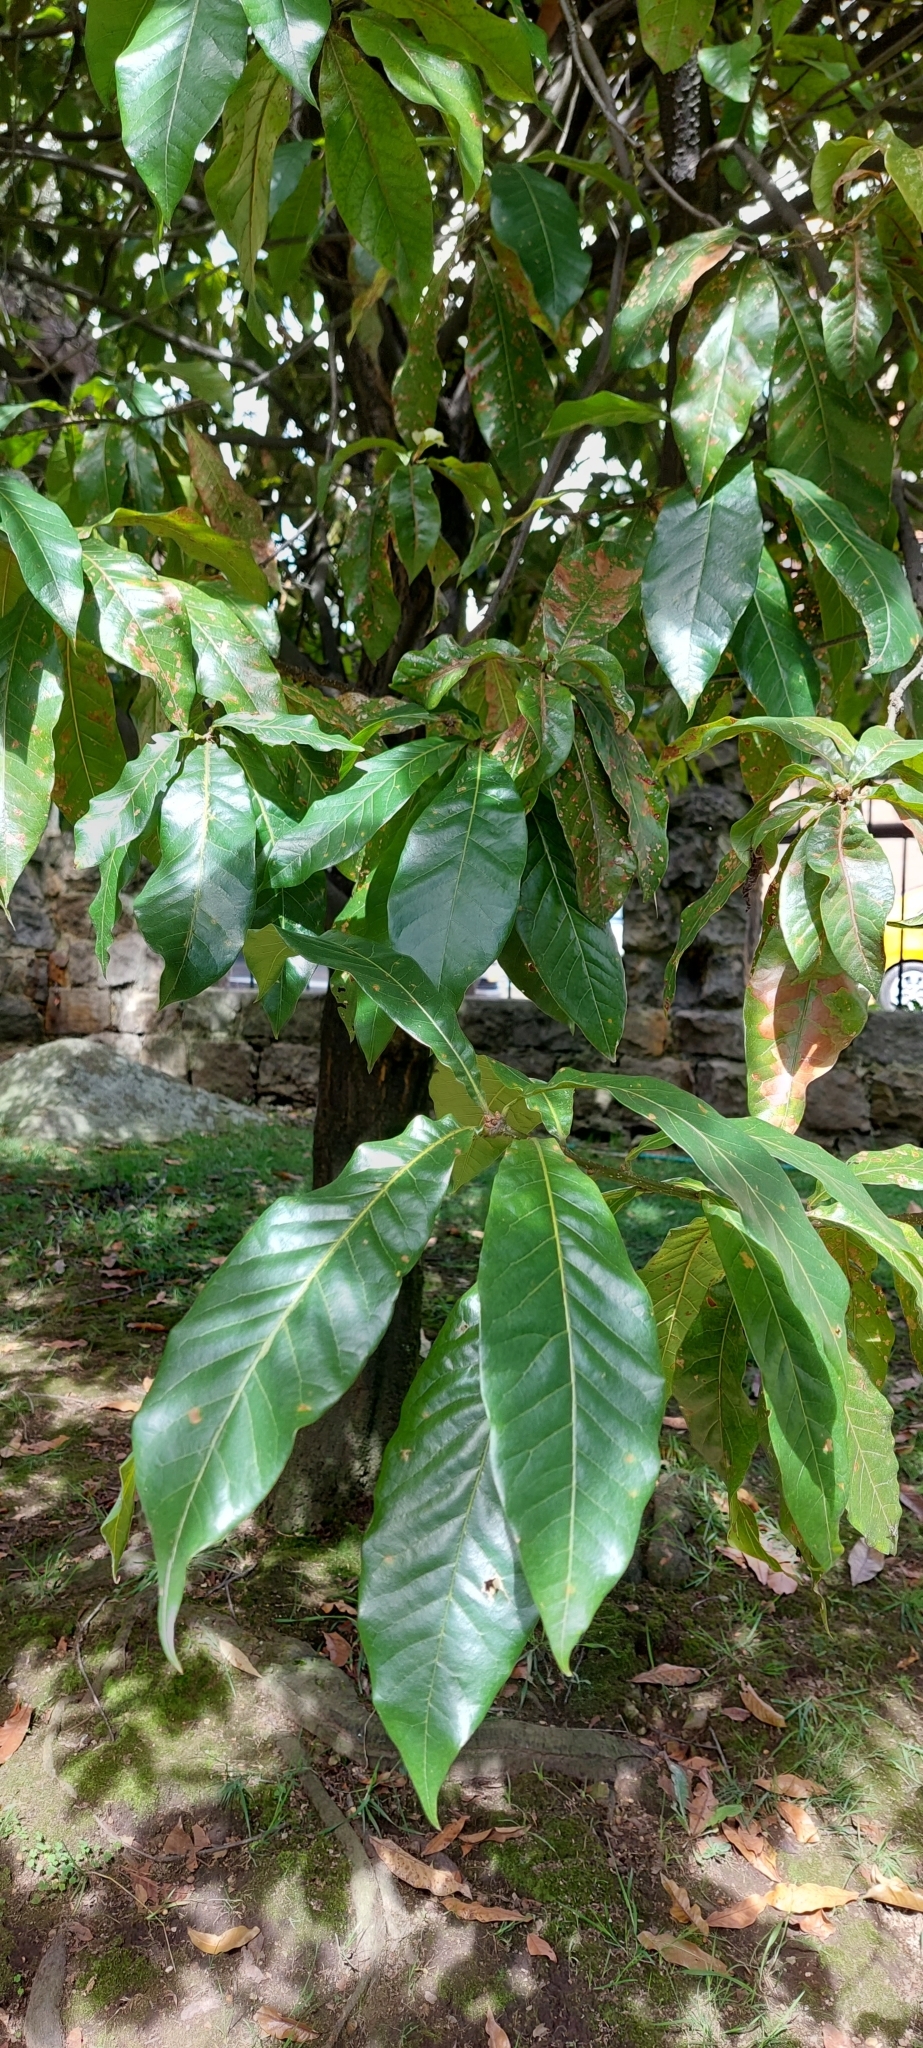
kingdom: Plantae
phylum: Tracheophyta
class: Magnoliopsida
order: Fagales
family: Fagaceae
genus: Quercus
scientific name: Quercus humboldtii
